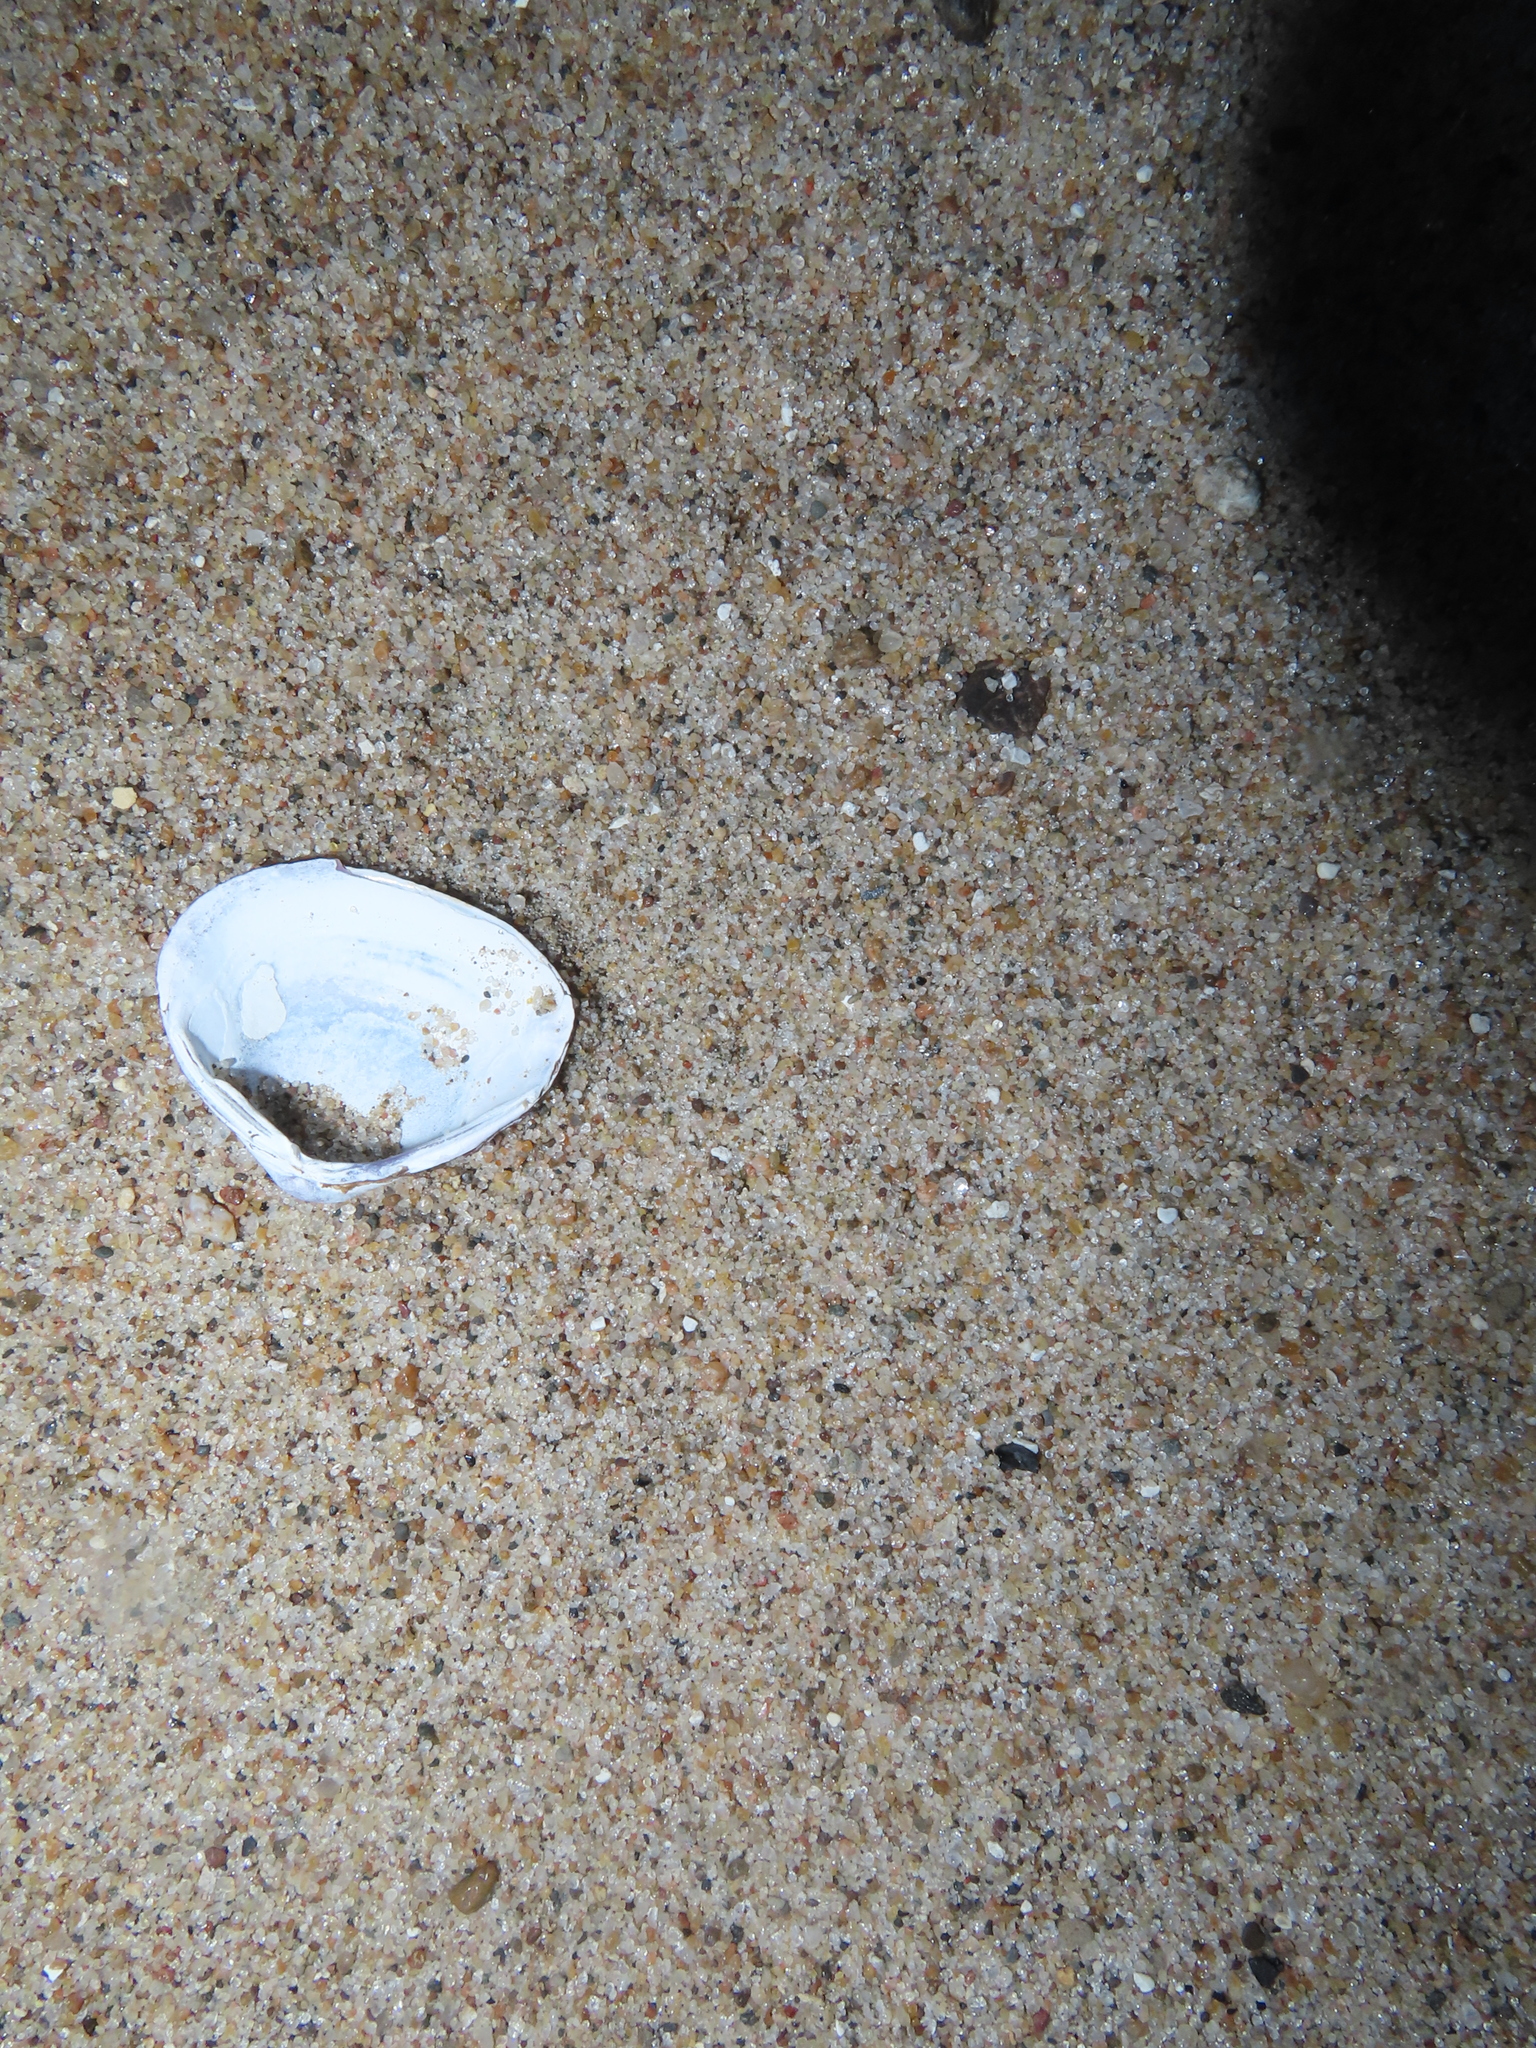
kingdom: Animalia
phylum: Mollusca
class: Bivalvia
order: Venerida
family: Cyrenidae
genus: Corbicula
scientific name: Corbicula fluminea
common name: Asian clam
